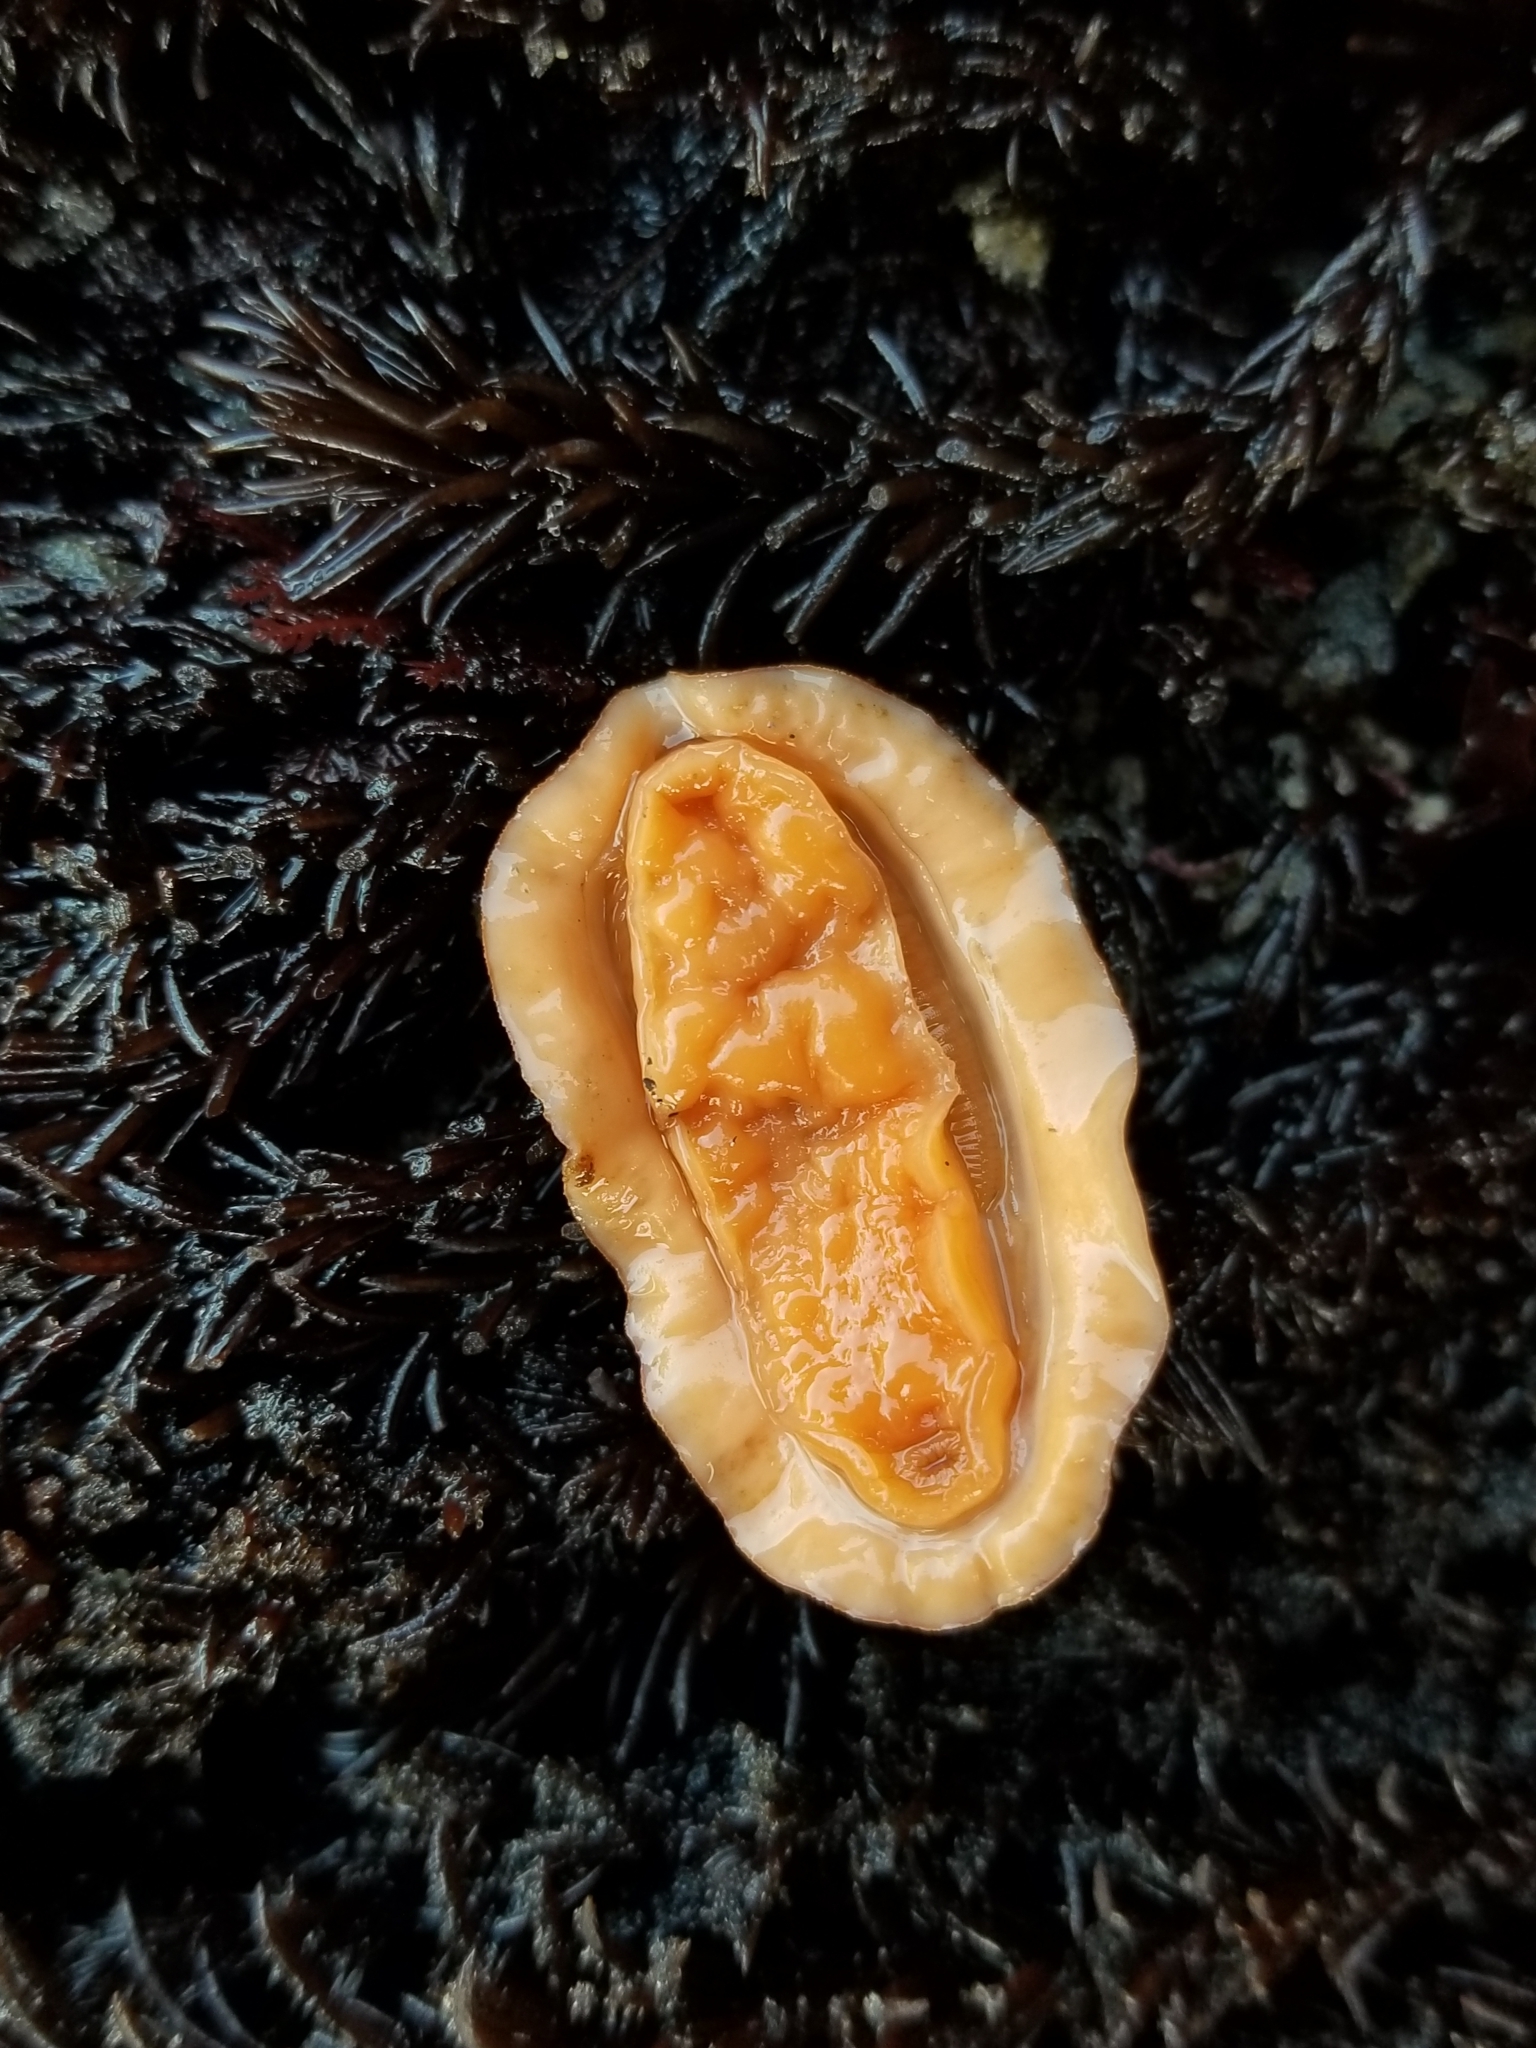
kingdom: Animalia
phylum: Mollusca
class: Polyplacophora
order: Chitonida
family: Tonicellidae
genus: Tonicella
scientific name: Tonicella lineata
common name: Lined chiton
